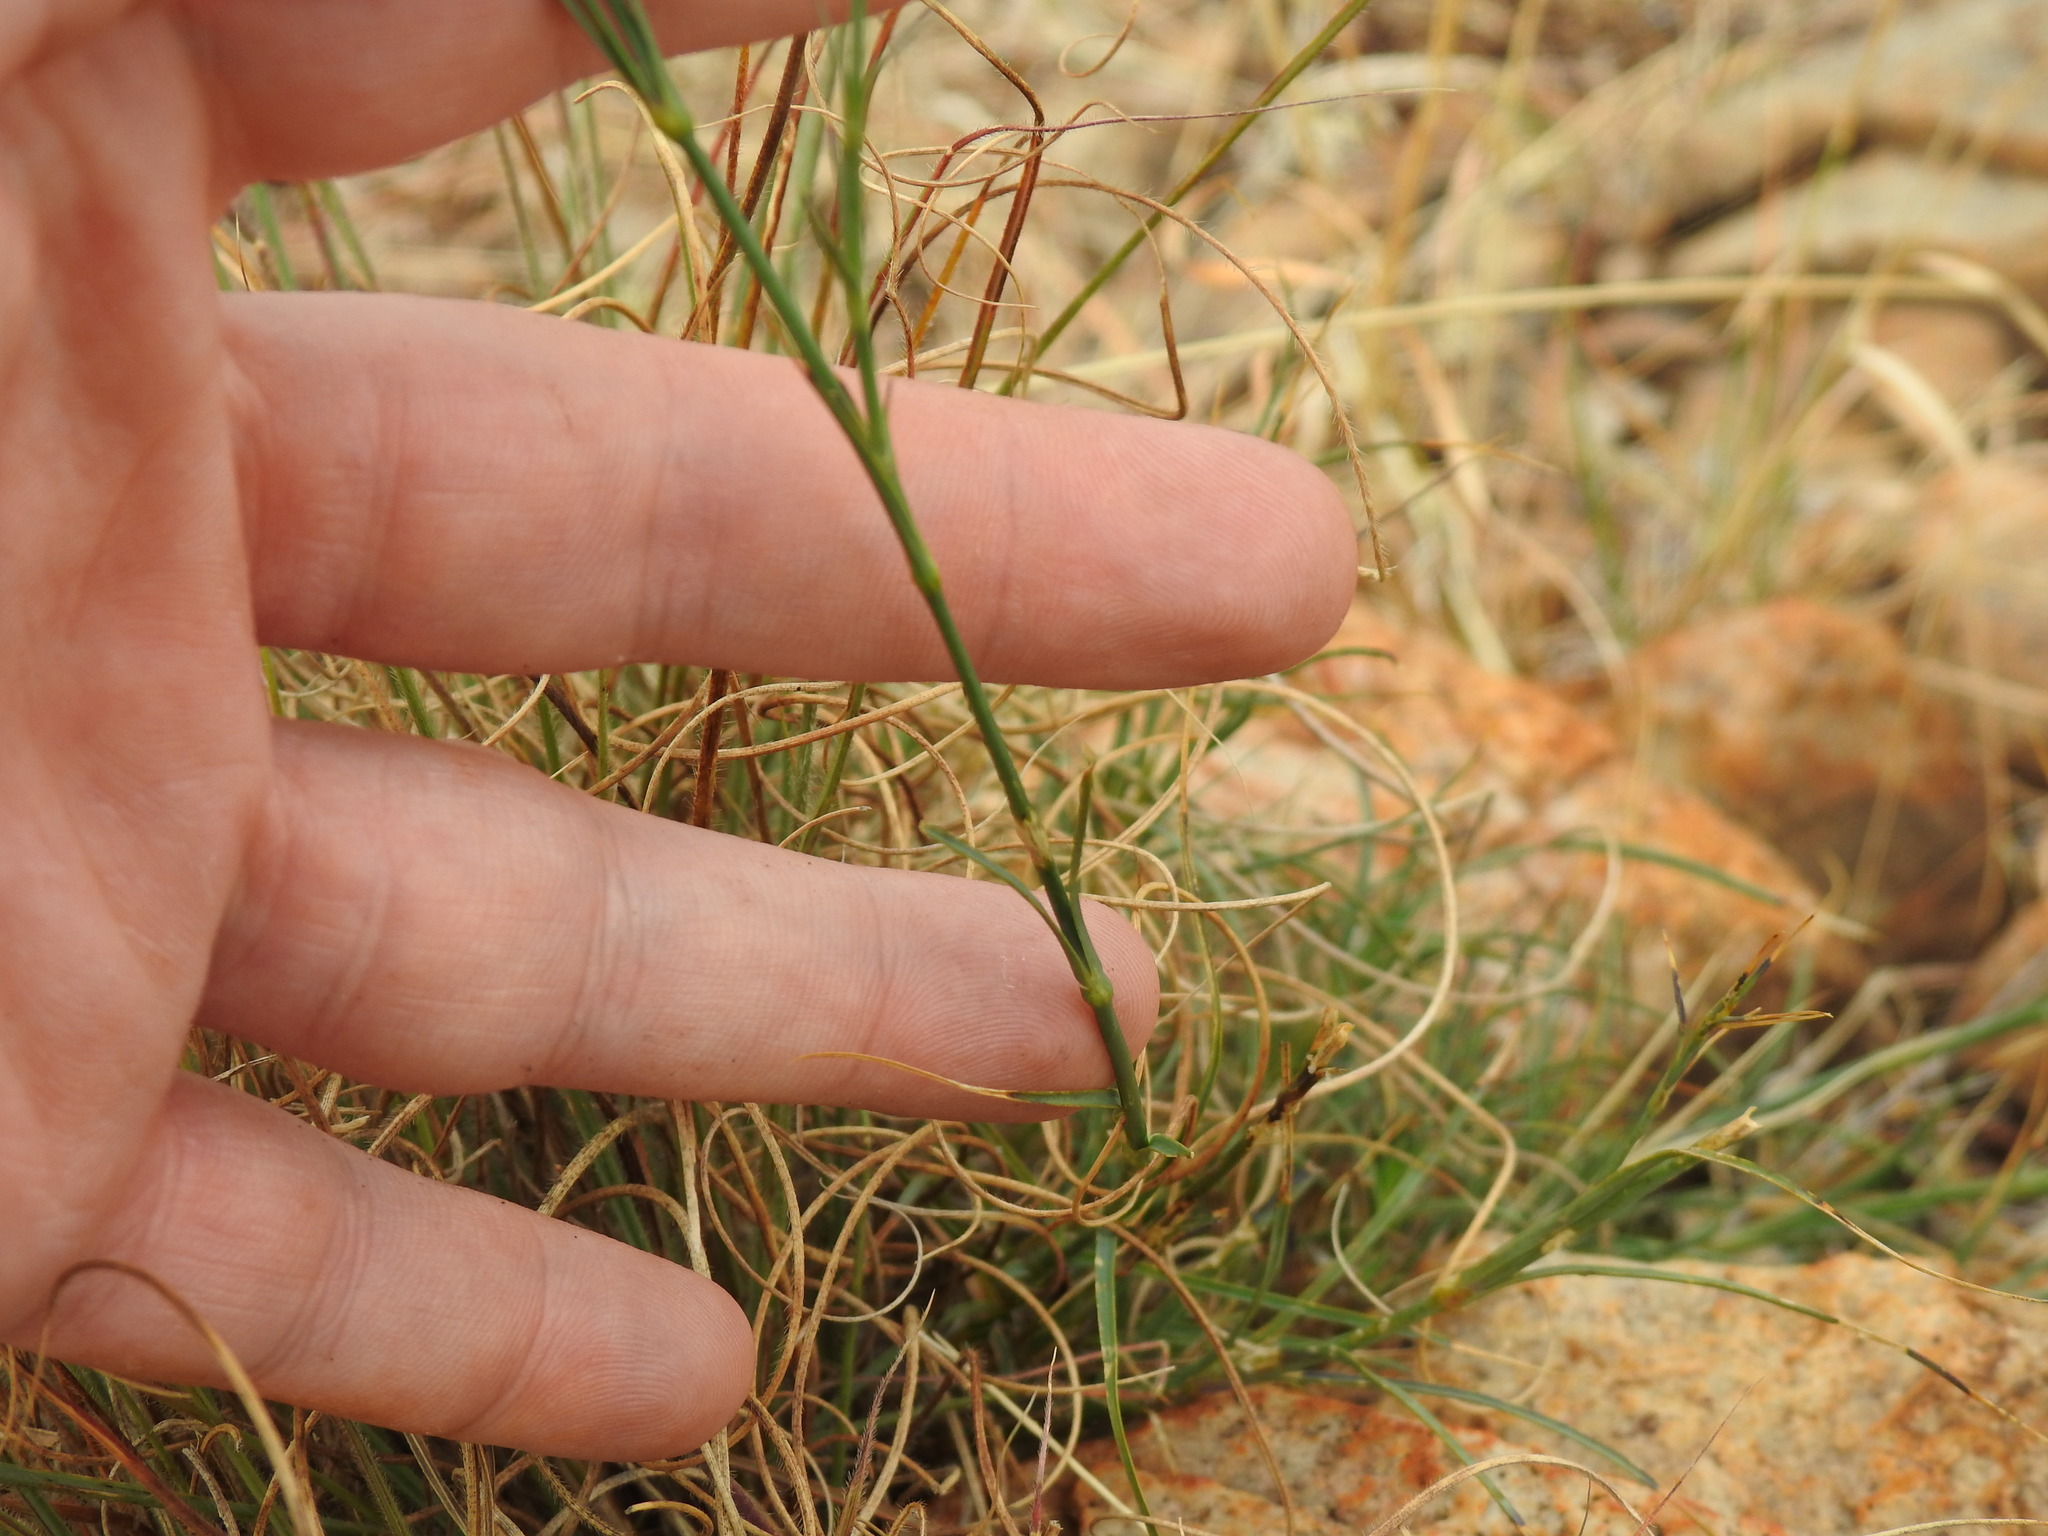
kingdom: Plantae
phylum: Tracheophyta
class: Magnoliopsida
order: Caryophyllales
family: Caryophyllaceae
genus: Dianthus
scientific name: Dianthus mooiensis
